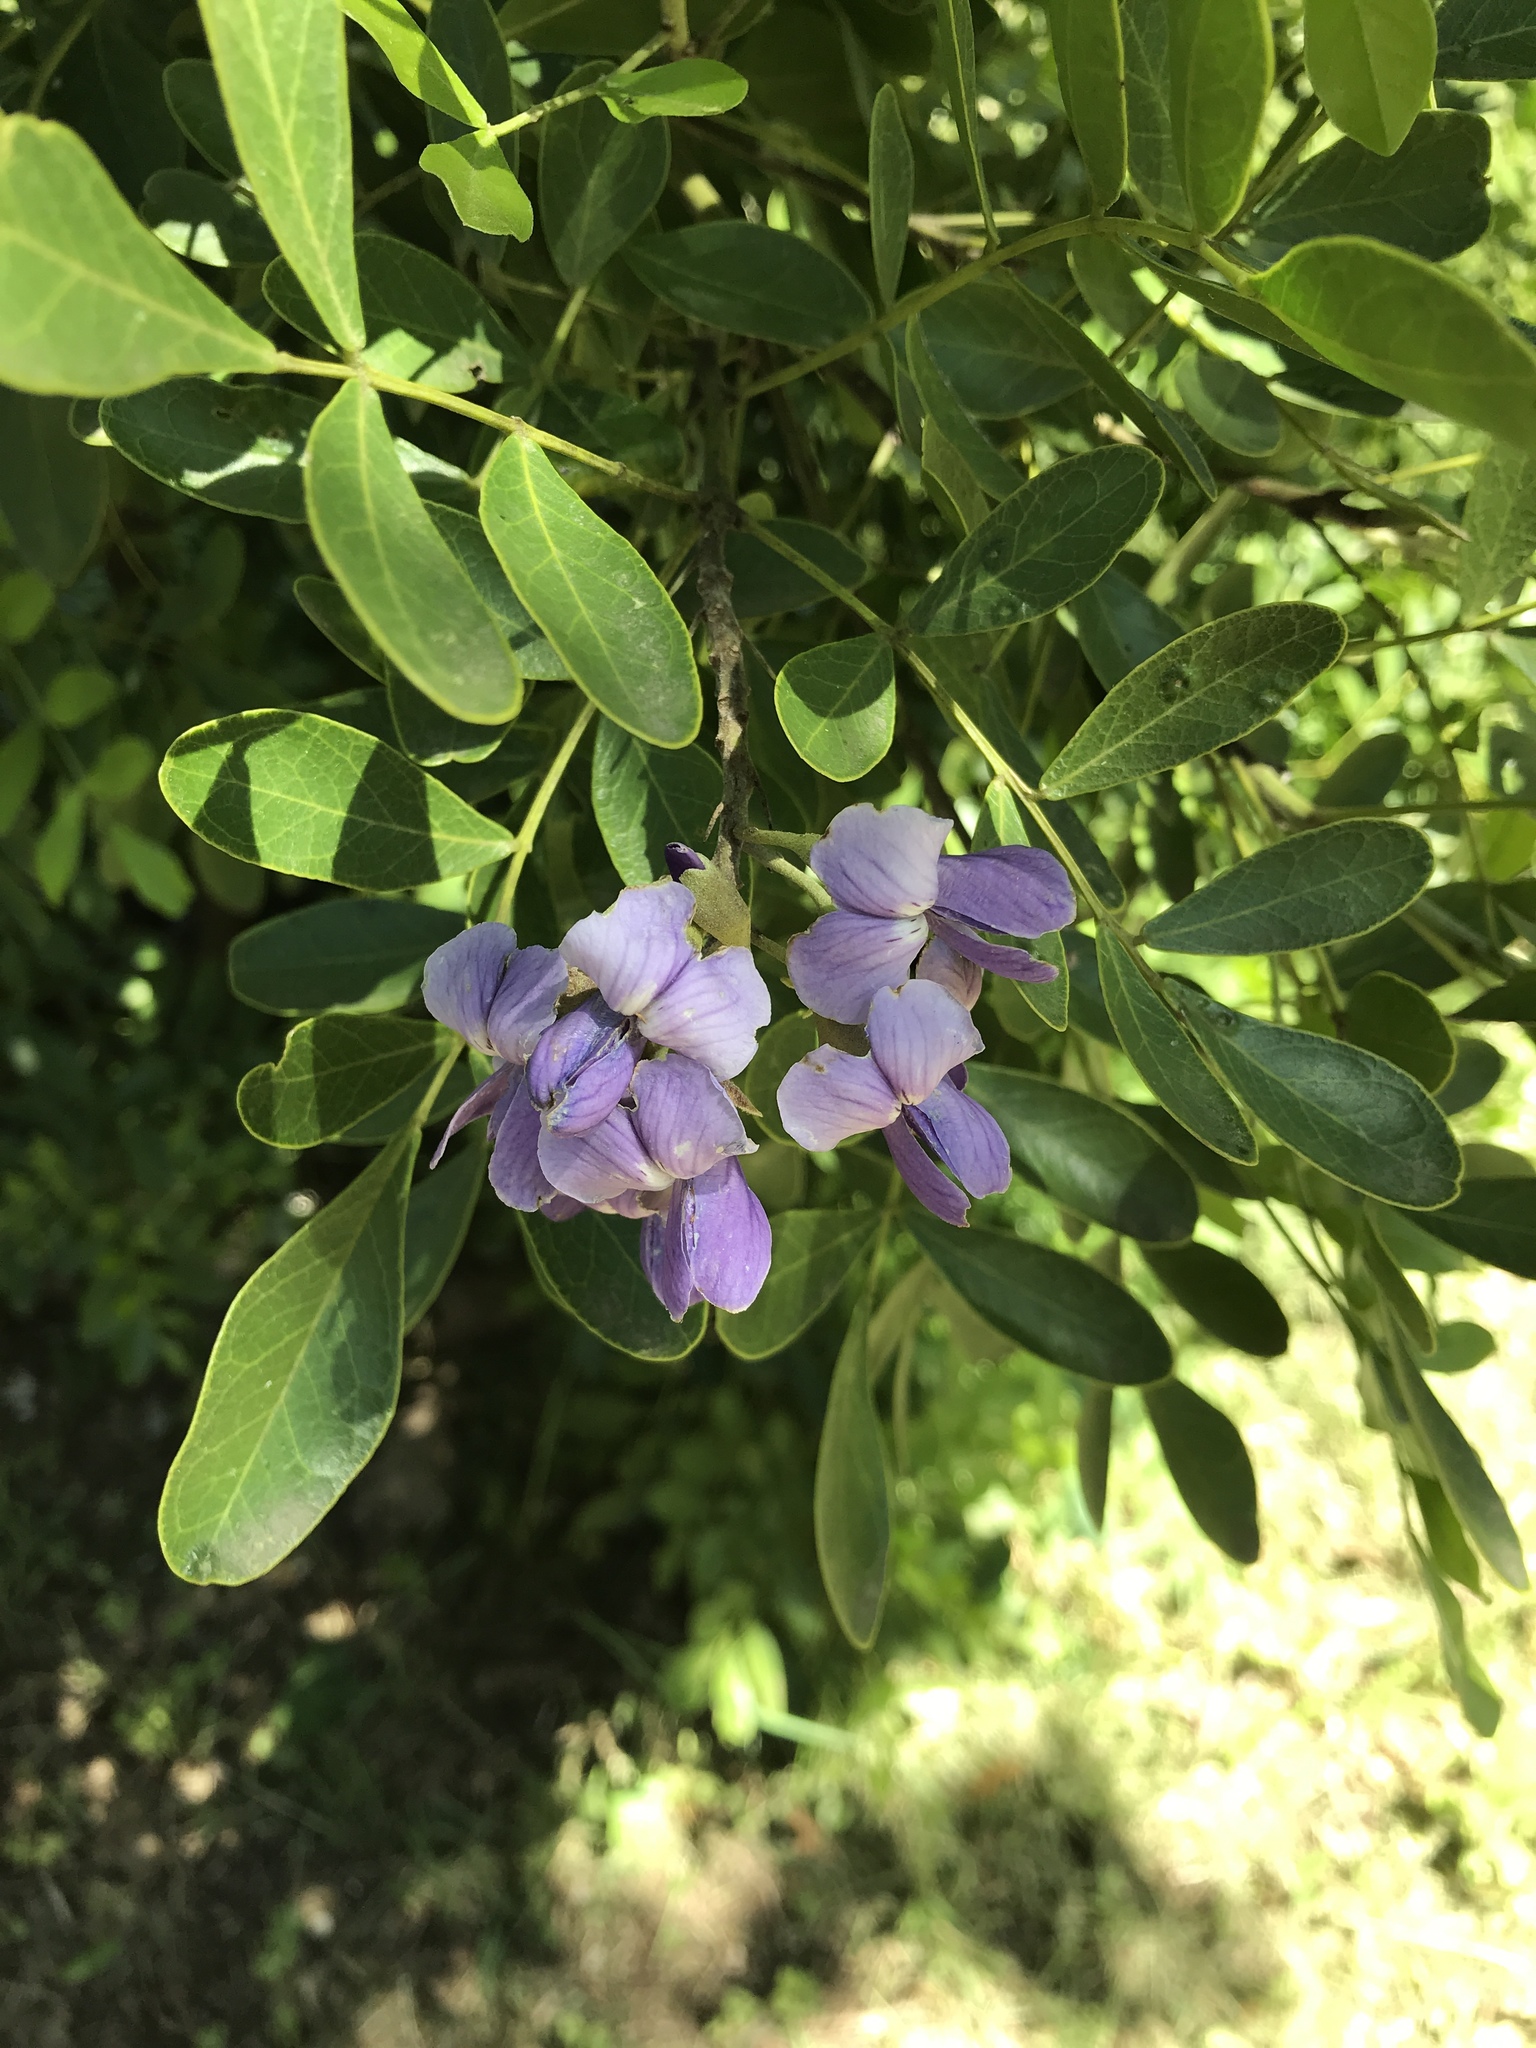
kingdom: Plantae
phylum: Tracheophyta
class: Magnoliopsida
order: Fabales
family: Fabaceae
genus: Dermatophyllum
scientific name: Dermatophyllum secundiflorum
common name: Texas-mountain-laurel
